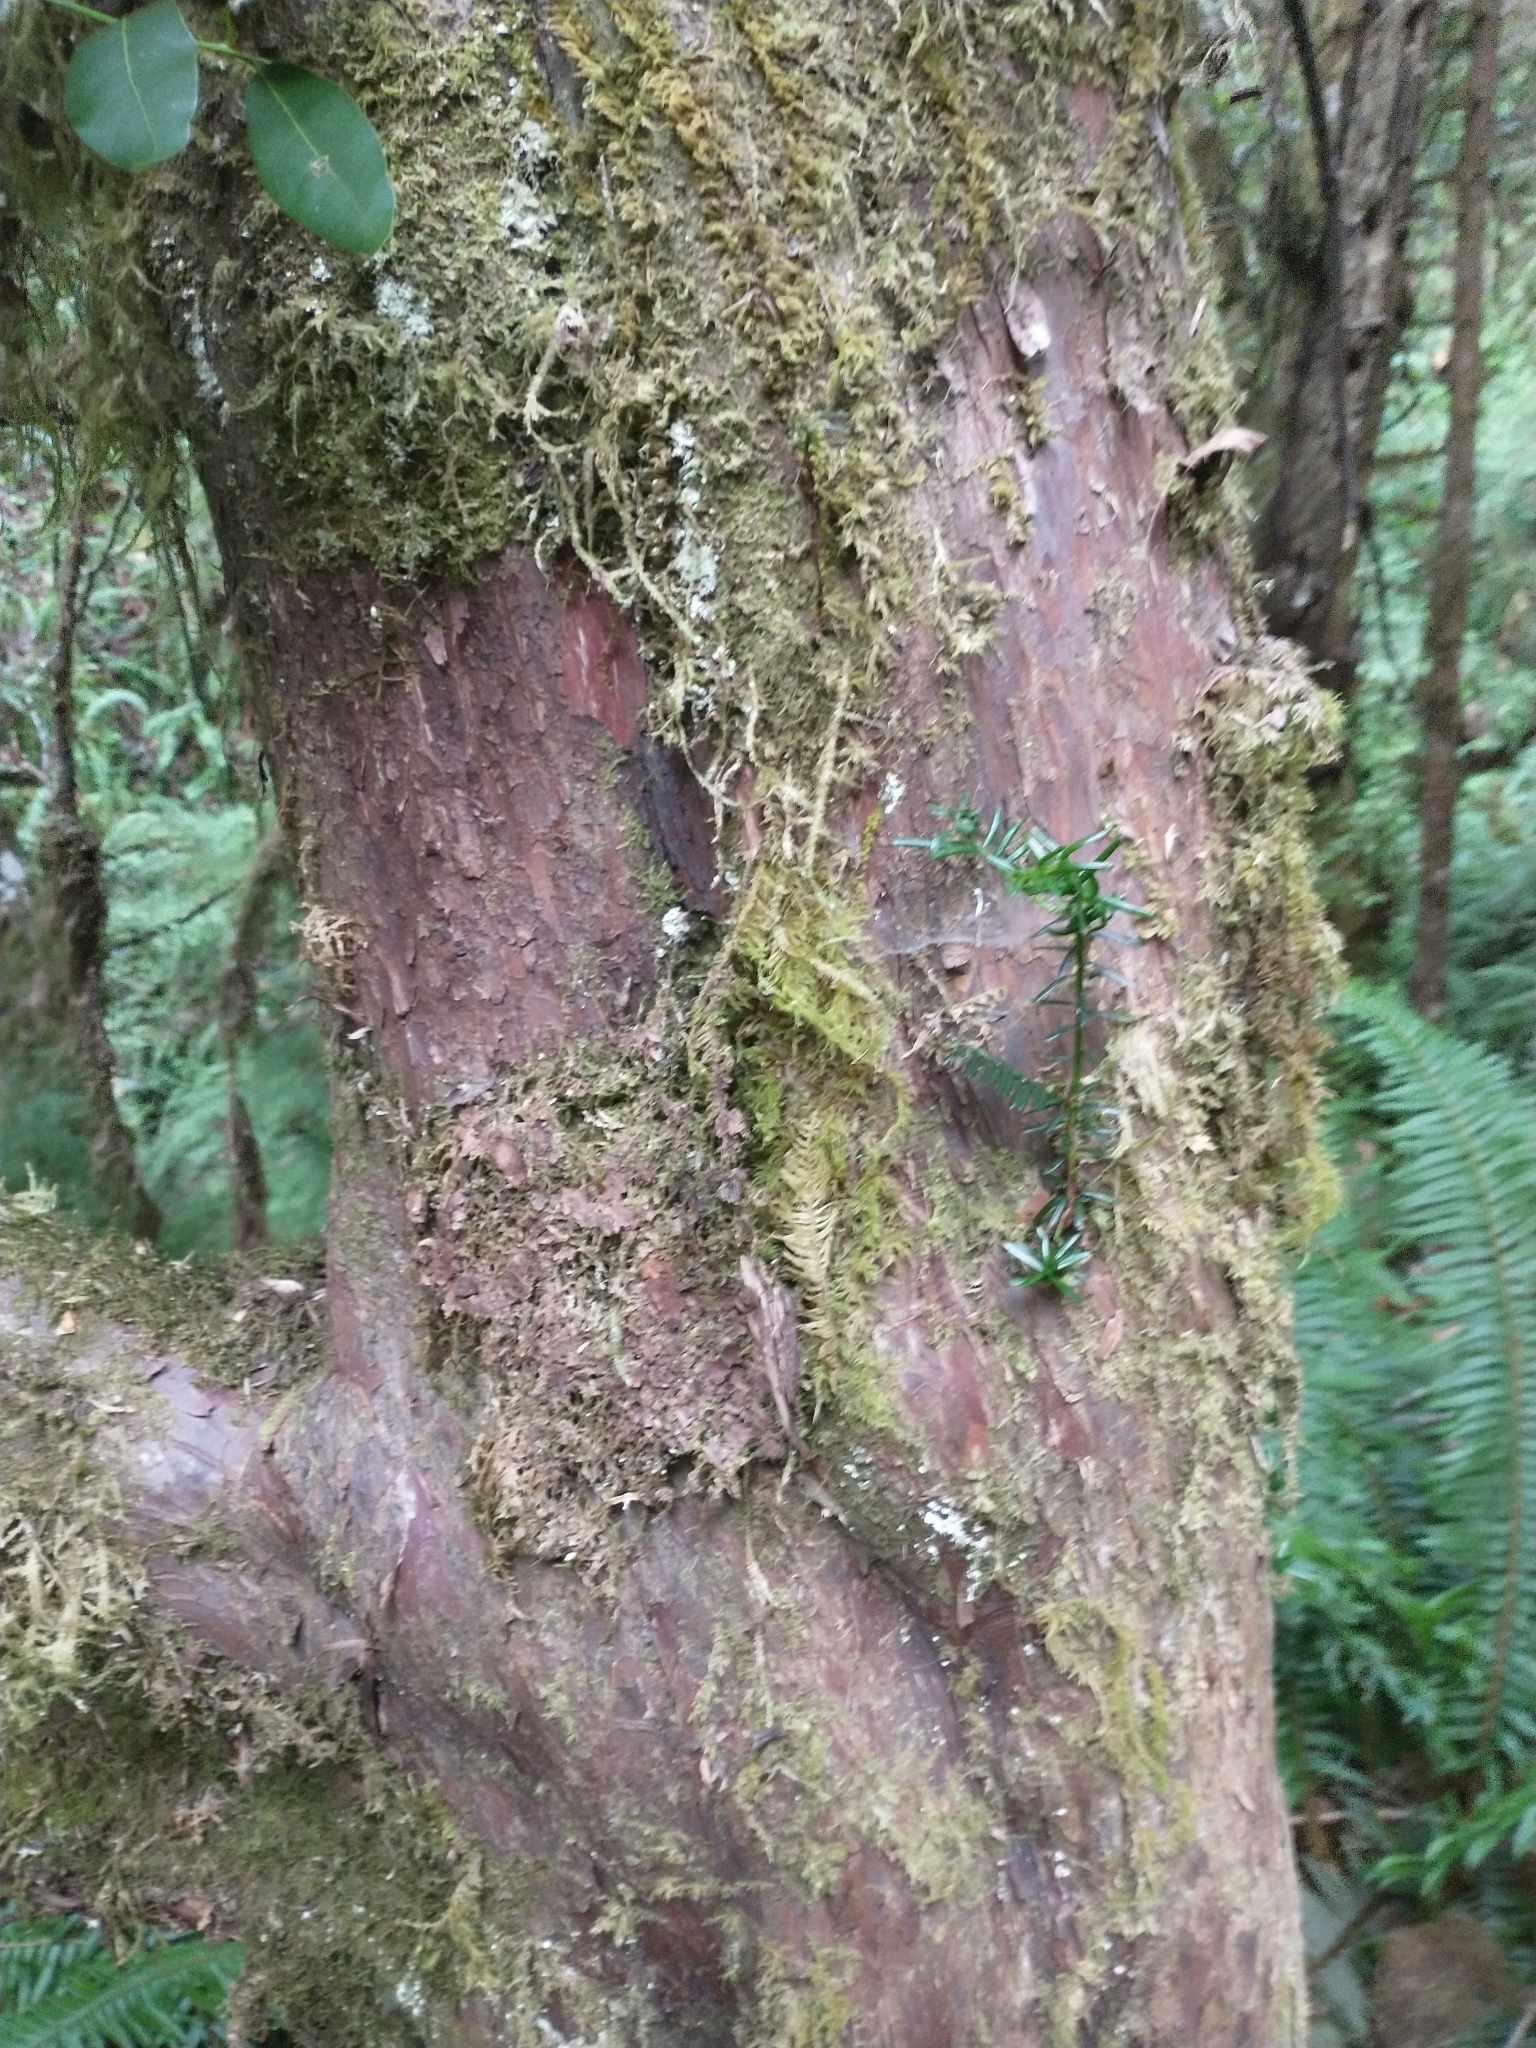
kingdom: Plantae
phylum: Tracheophyta
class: Pinopsida
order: Pinales
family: Taxaceae
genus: Taxus
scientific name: Taxus brevifolia
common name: Pacific yew
